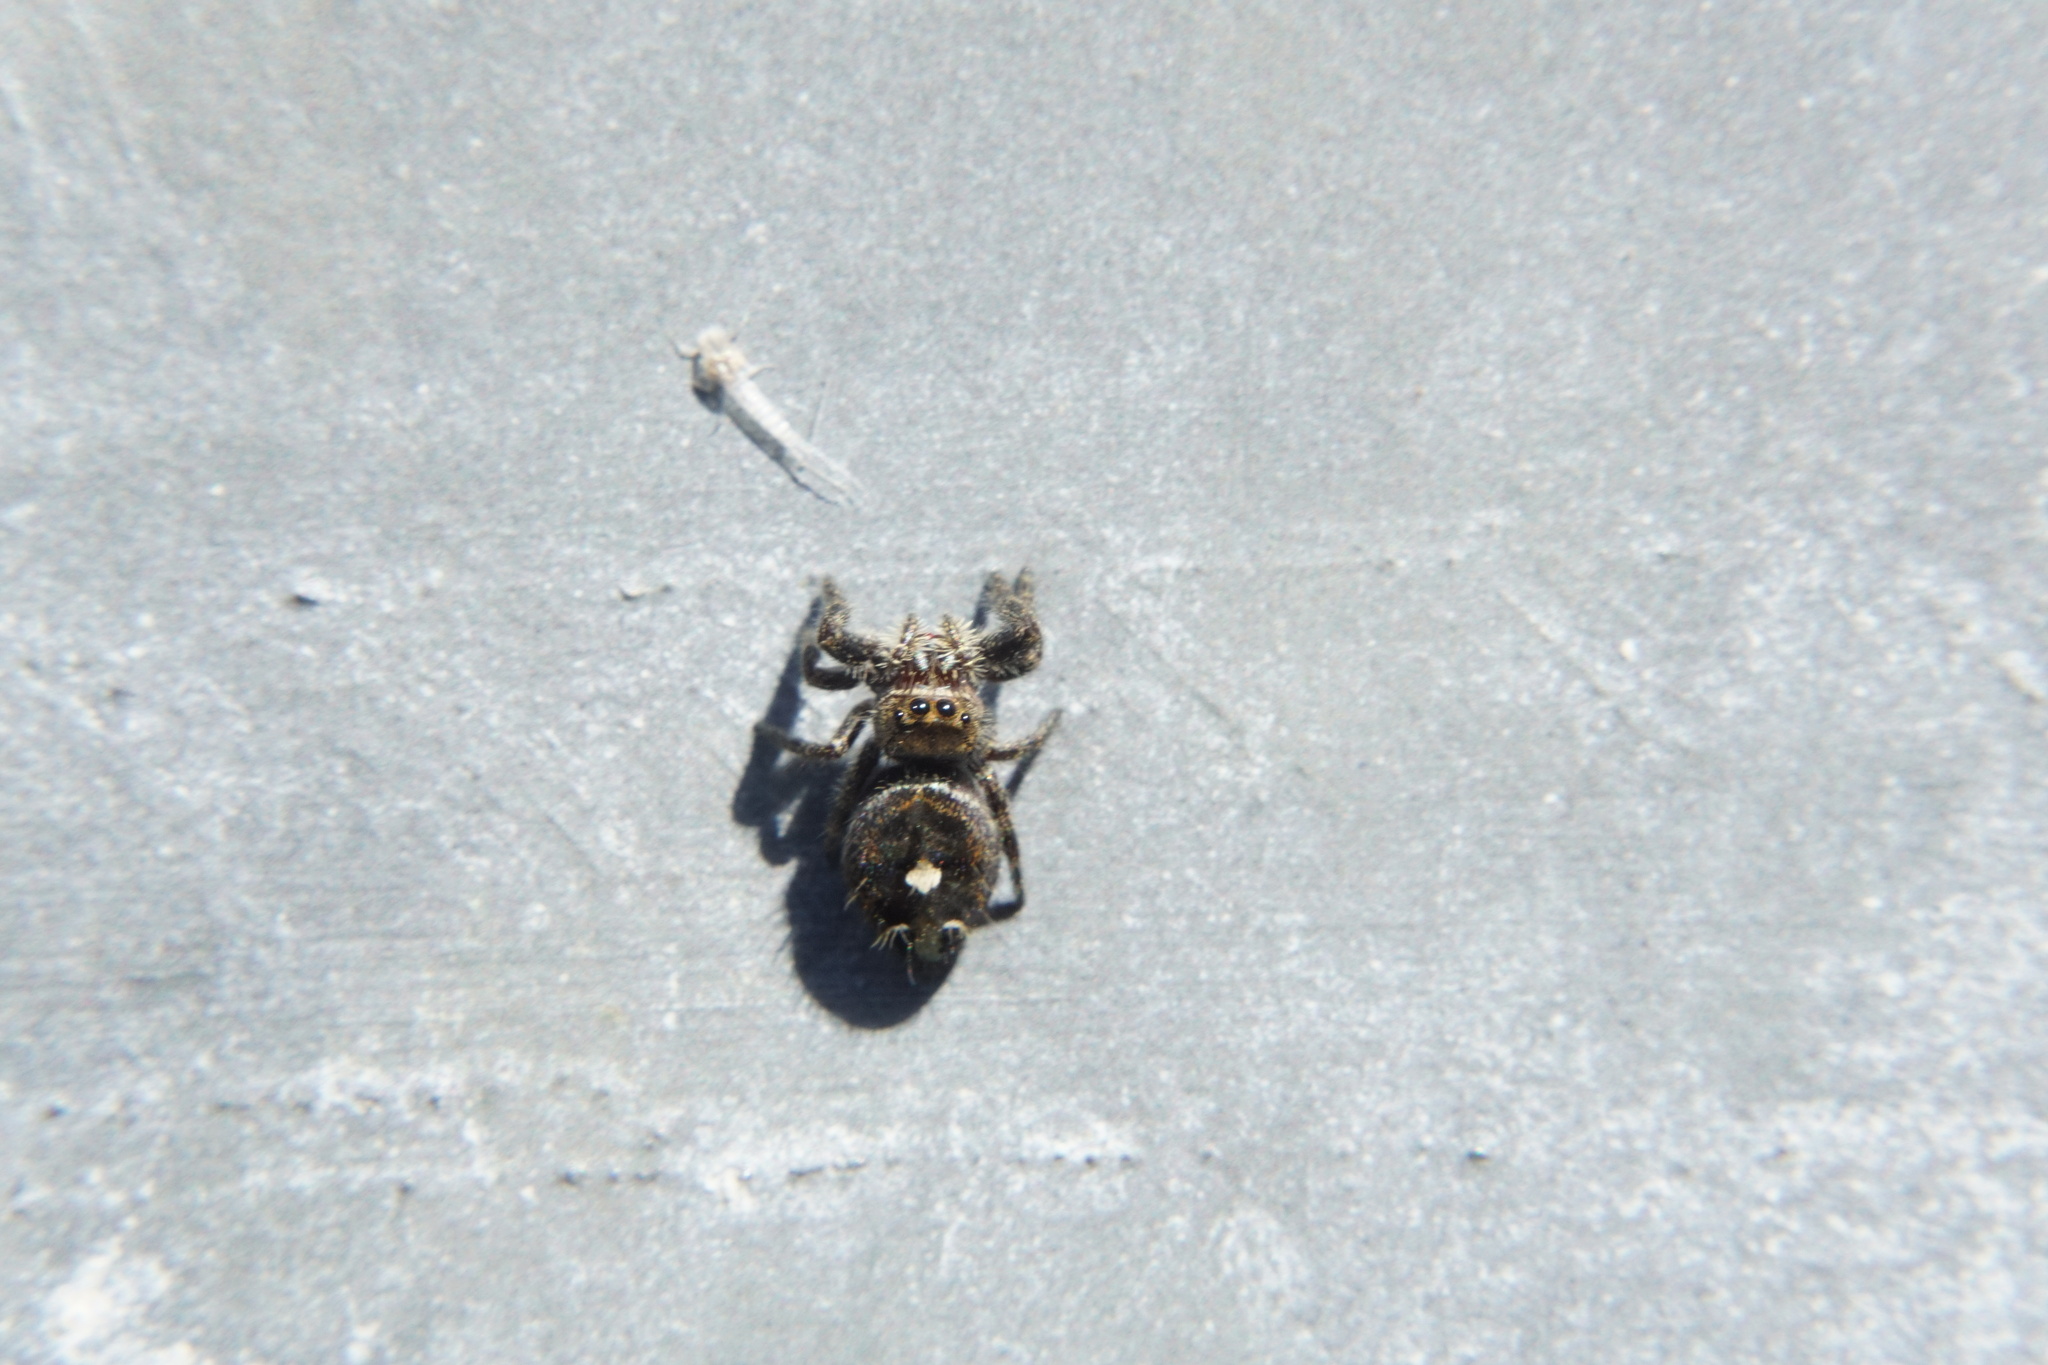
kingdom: Animalia
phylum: Arthropoda
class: Arachnida
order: Araneae
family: Salticidae
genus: Phidippus
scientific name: Phidippus audax
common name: Bold jumper
